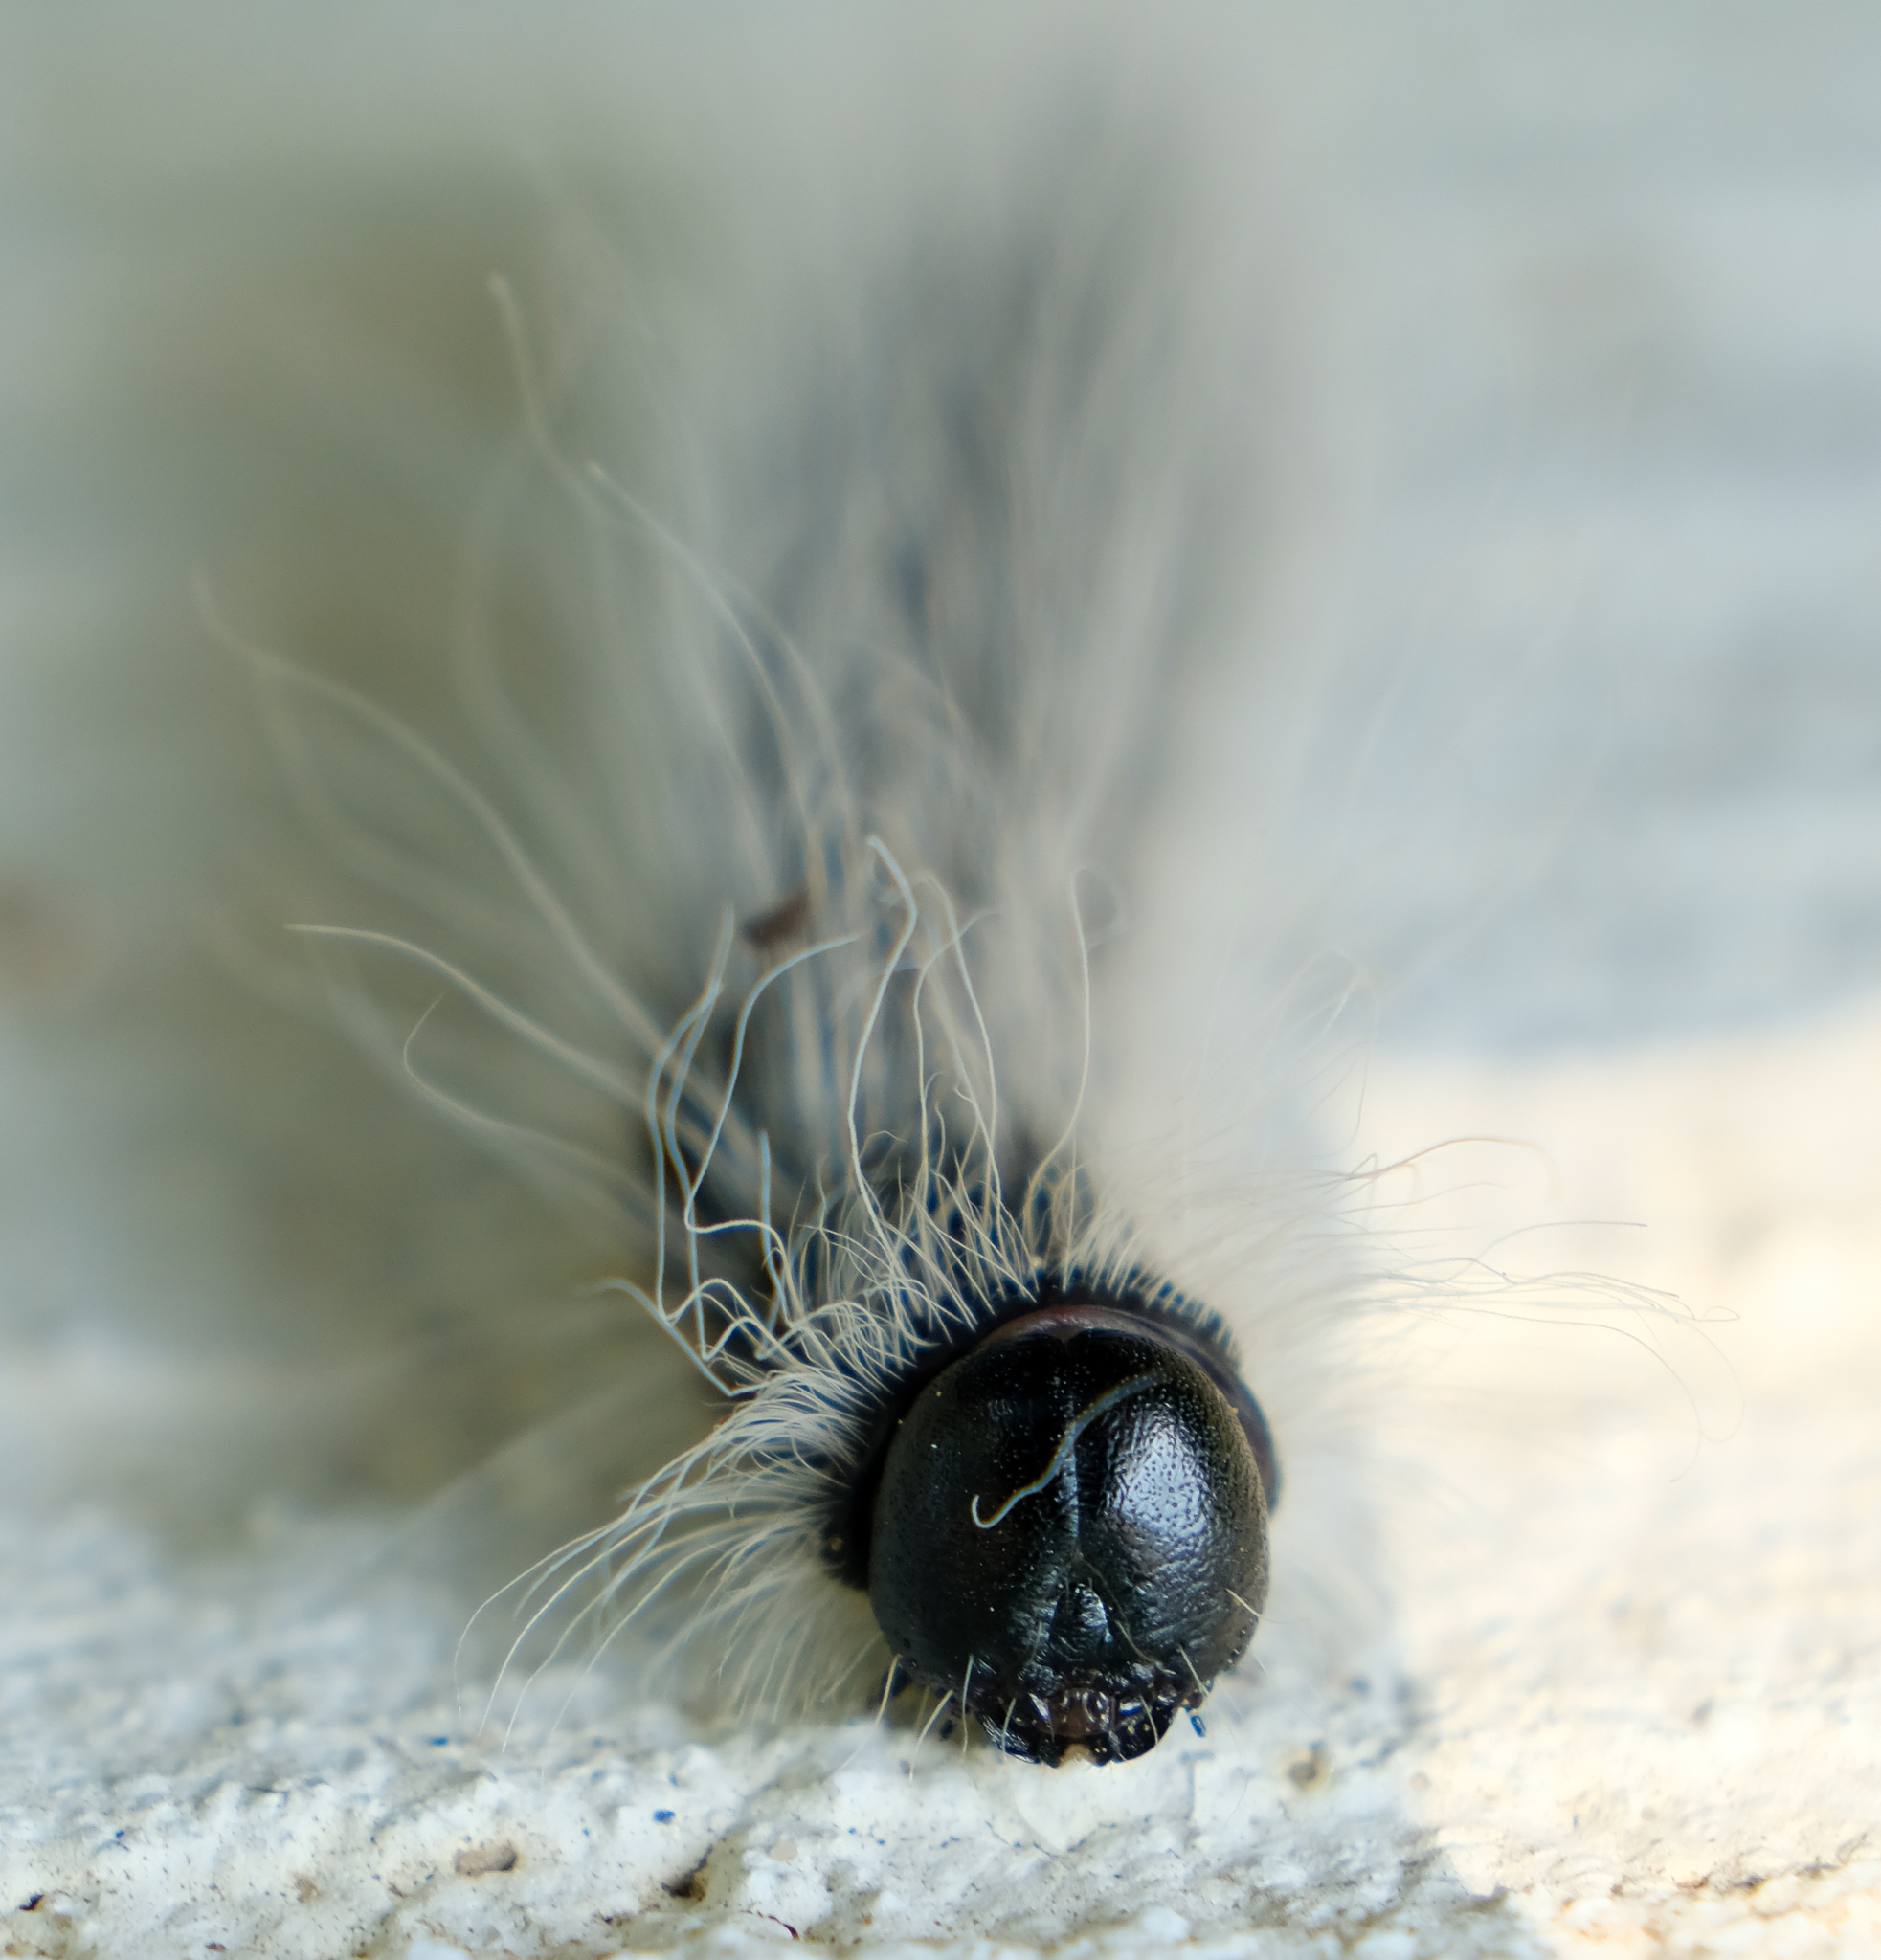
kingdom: Animalia
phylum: Arthropoda
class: Insecta
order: Lepidoptera
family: Notodontidae
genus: Datana
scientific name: Datana integerrima
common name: Walnut caterpillar
